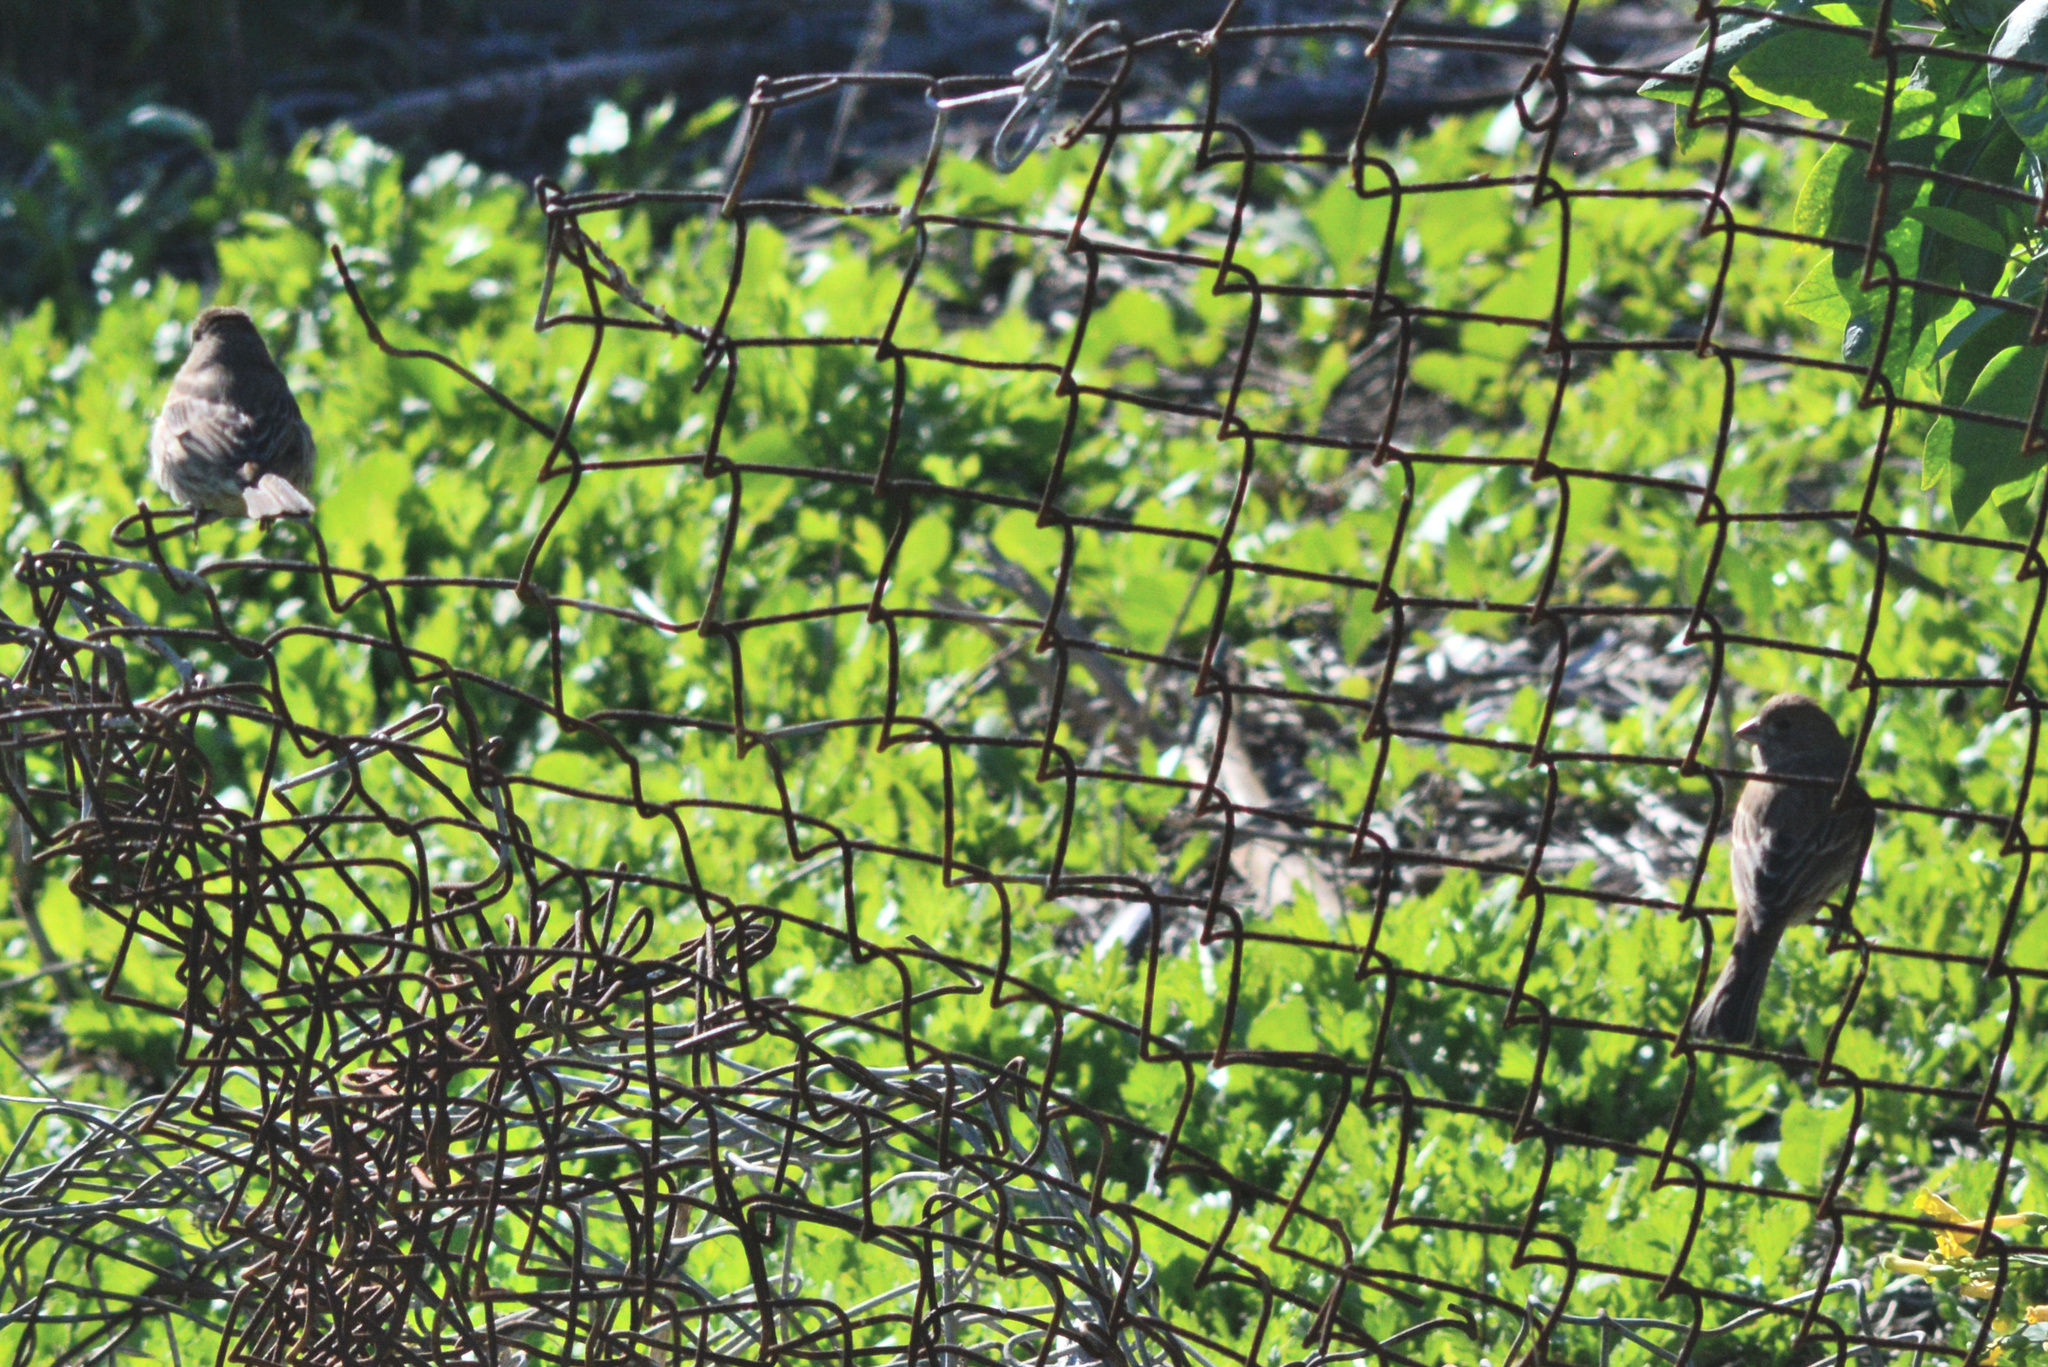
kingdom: Animalia
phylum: Chordata
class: Aves
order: Passeriformes
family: Fringillidae
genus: Haemorhous
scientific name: Haemorhous mexicanus
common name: House finch
